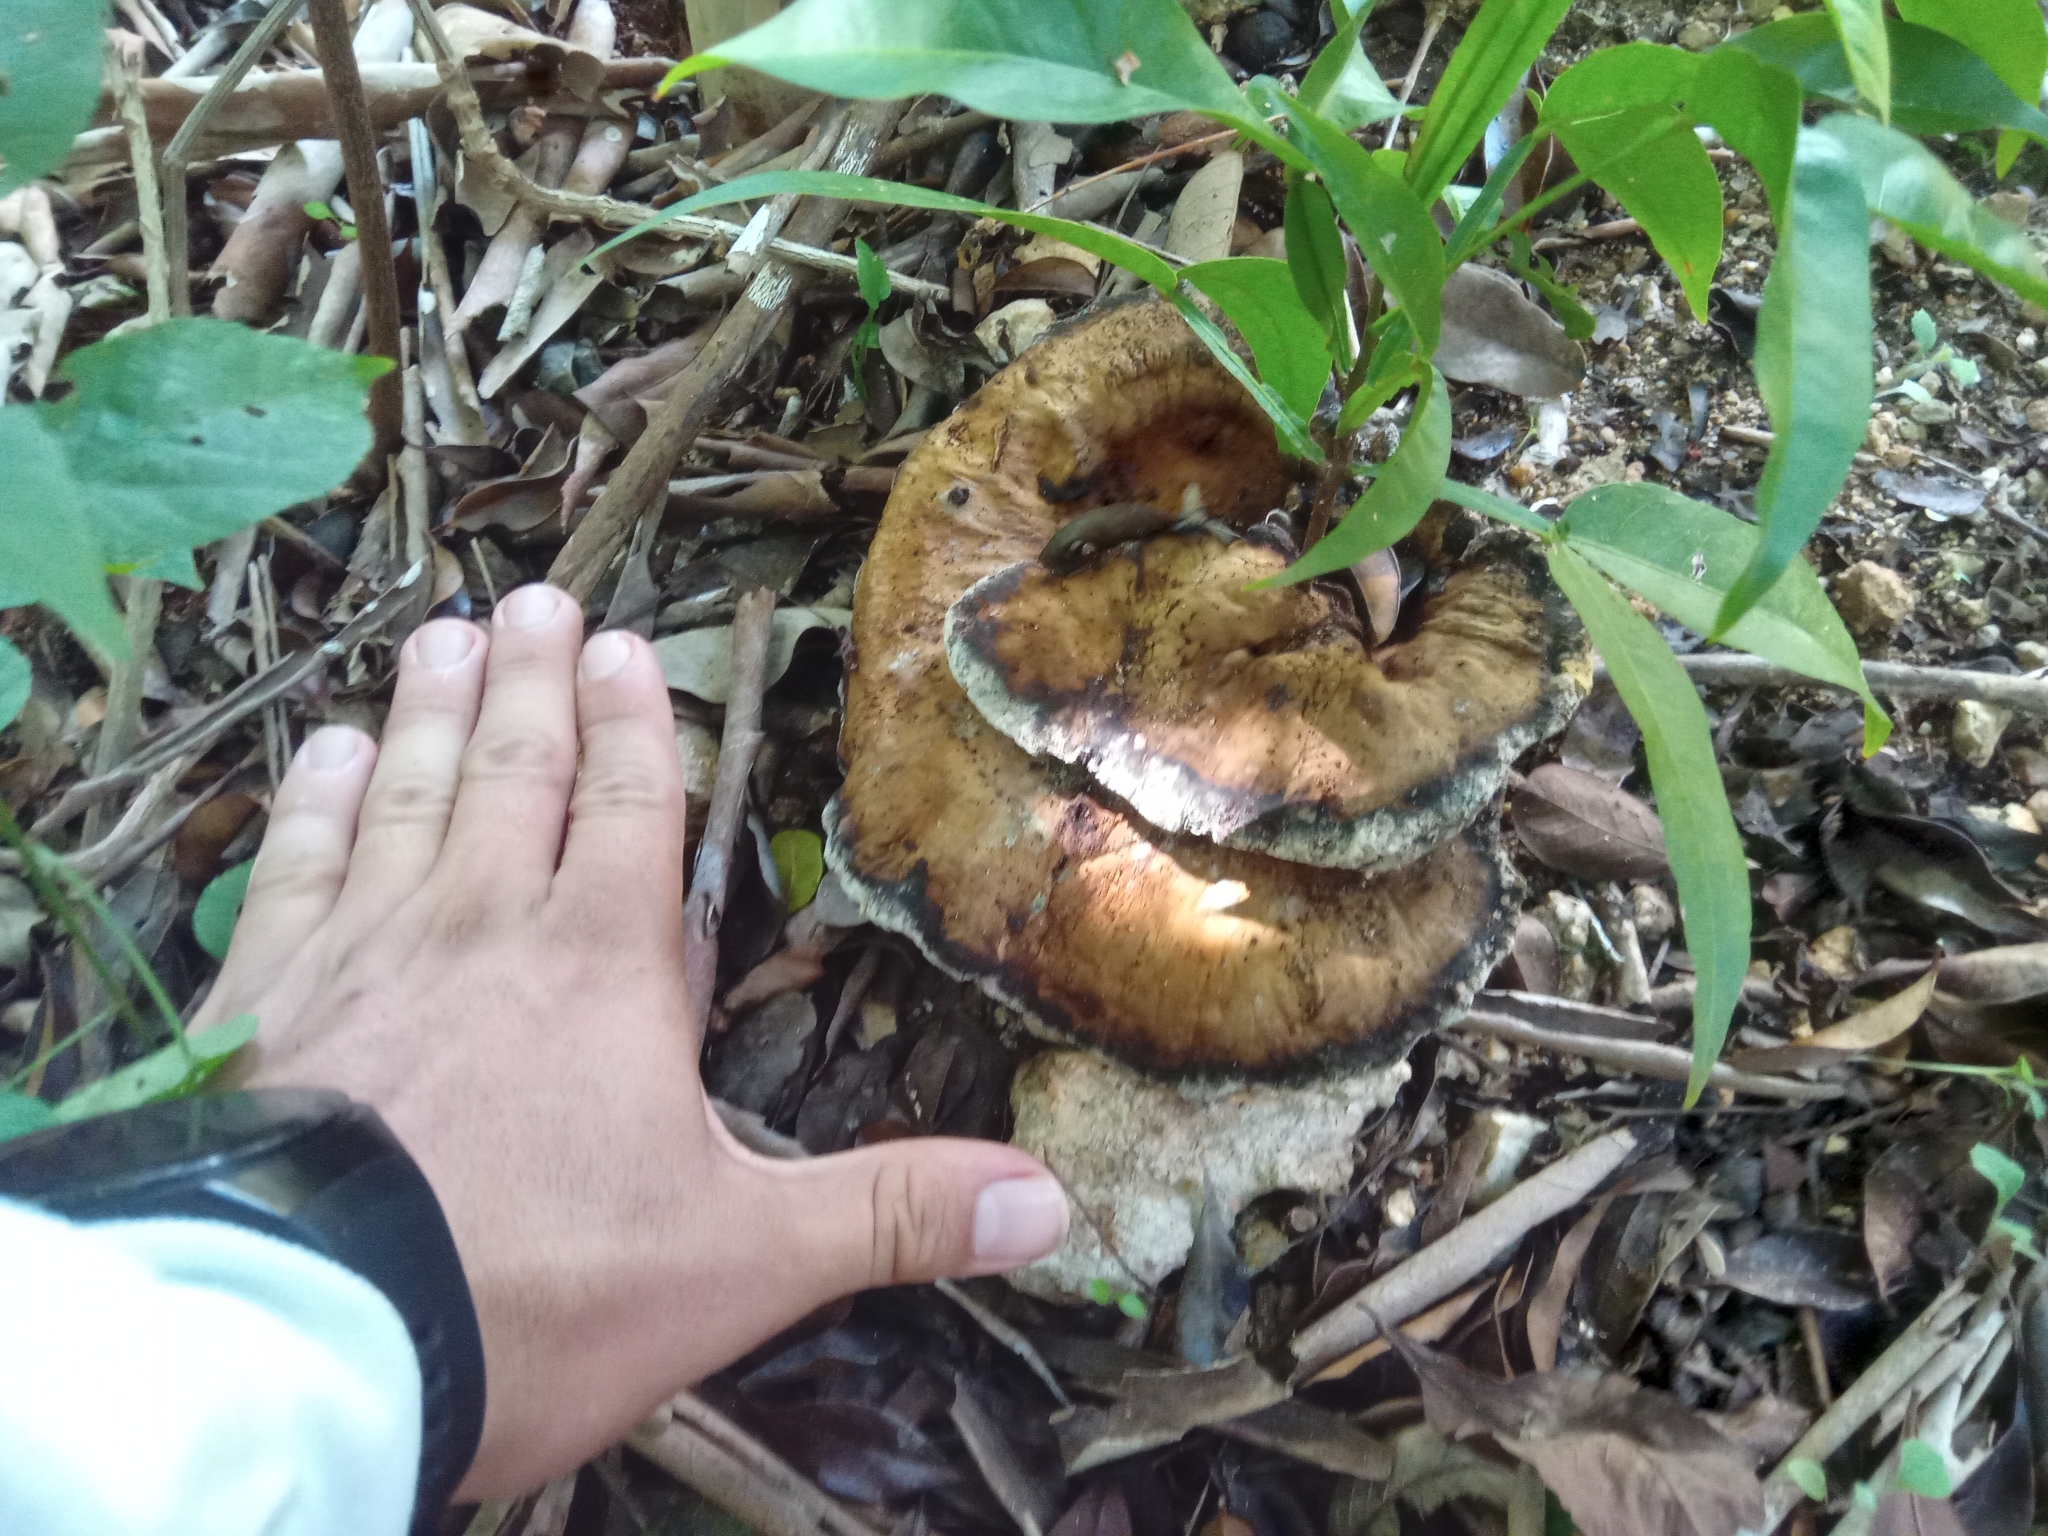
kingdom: Fungi
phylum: Basidiomycota
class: Agaricomycetes
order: Polyporales
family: Cerrenaceae
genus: Cerrena
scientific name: Cerrena hydnoides
